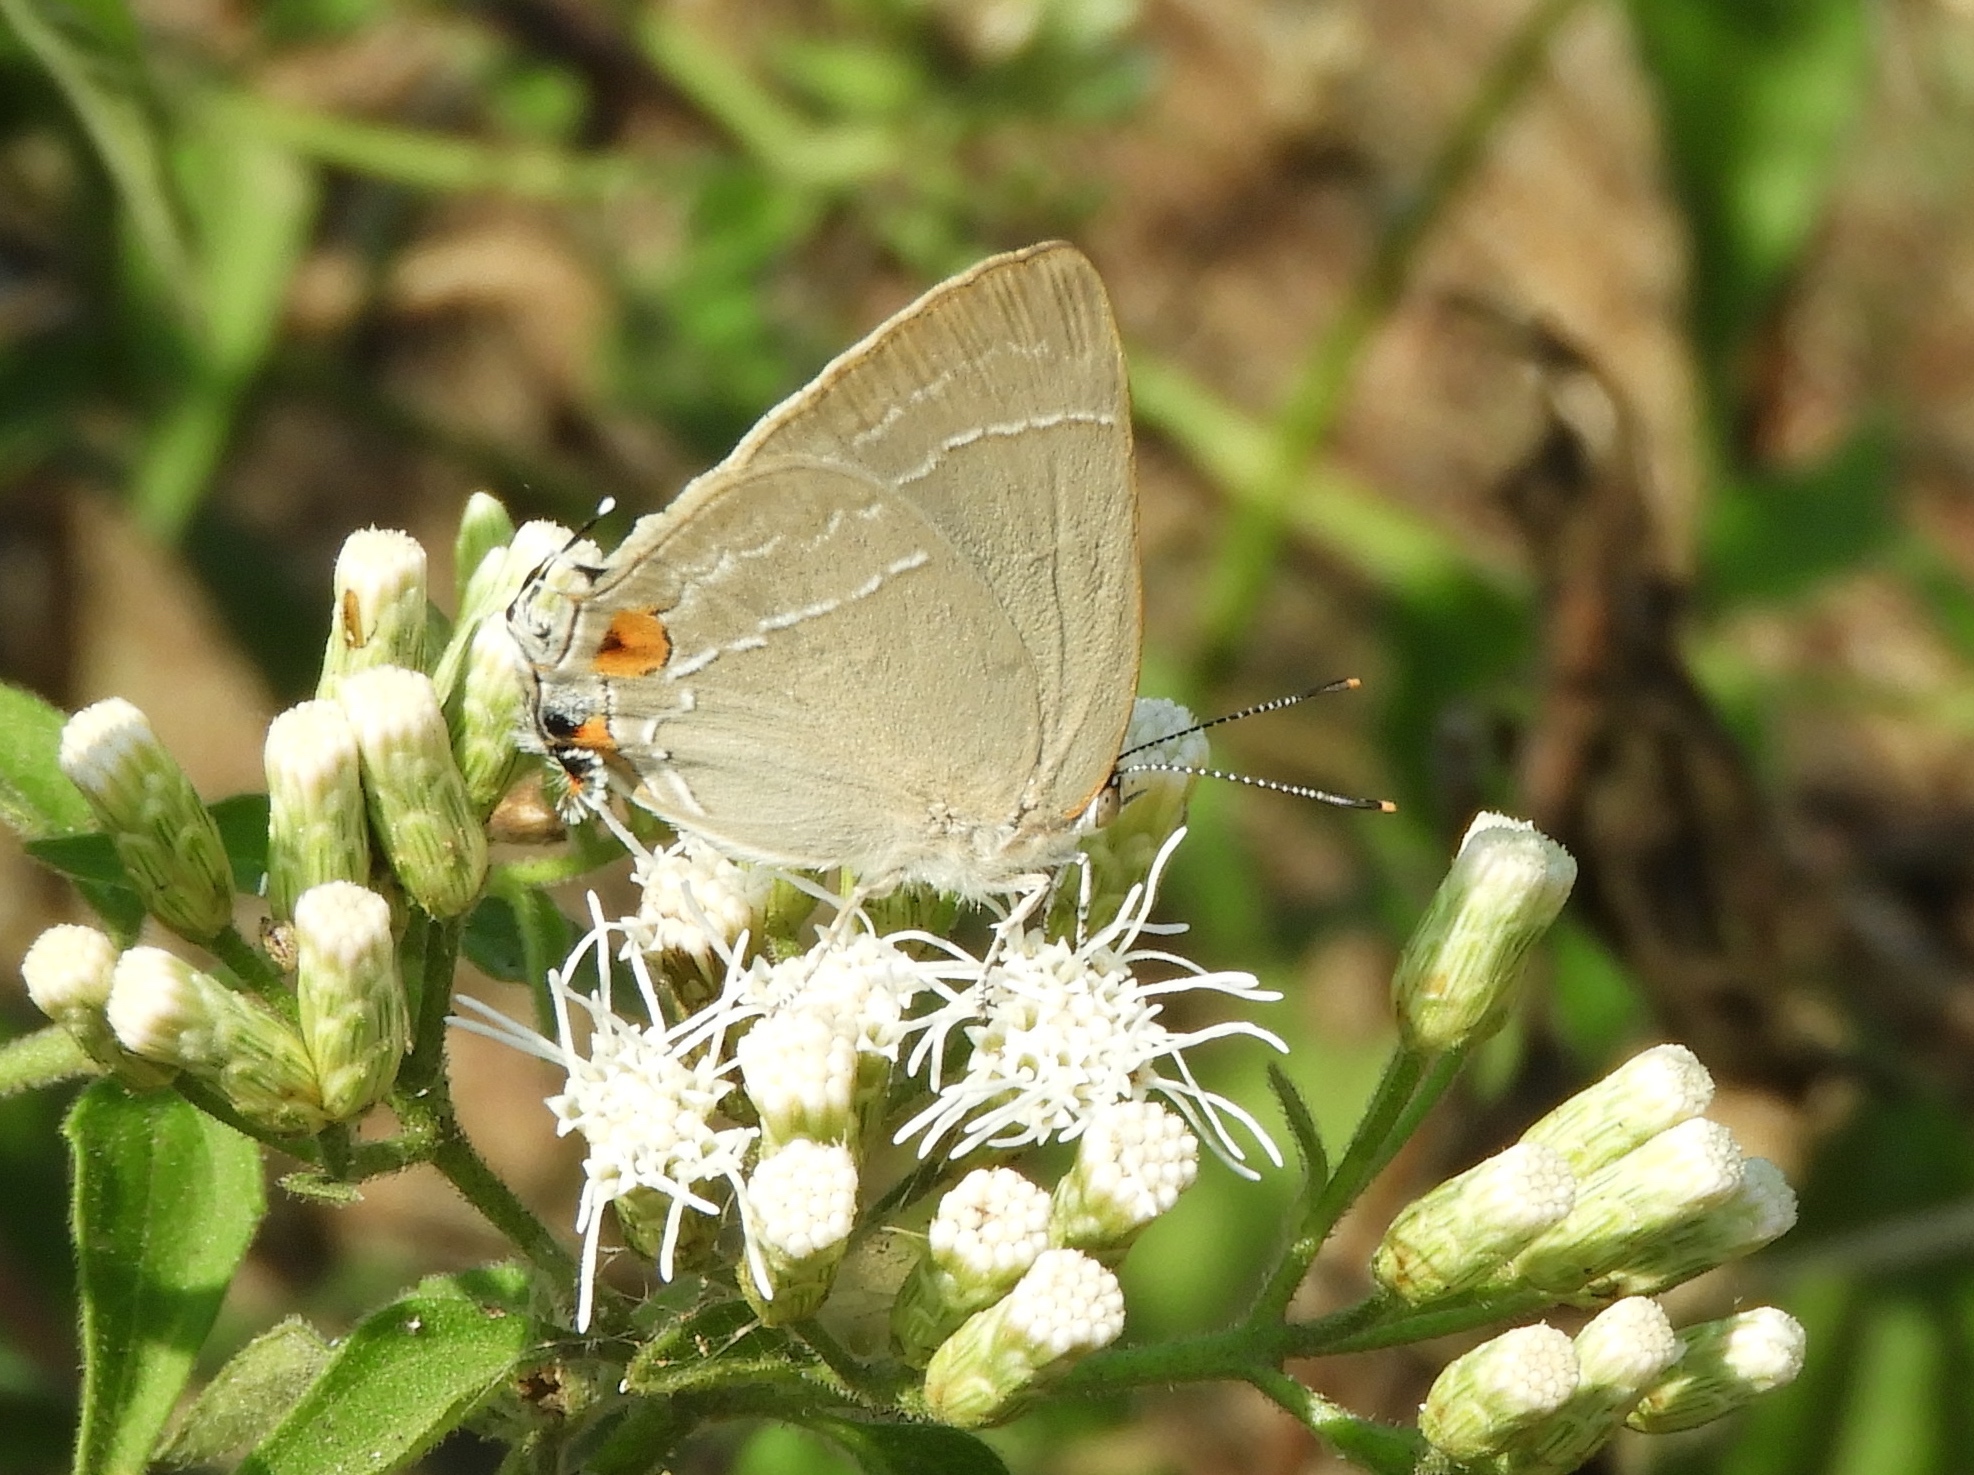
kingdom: Animalia
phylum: Arthropoda
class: Insecta
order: Lepidoptera
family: Lycaenidae
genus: Rekoa
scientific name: Rekoa
